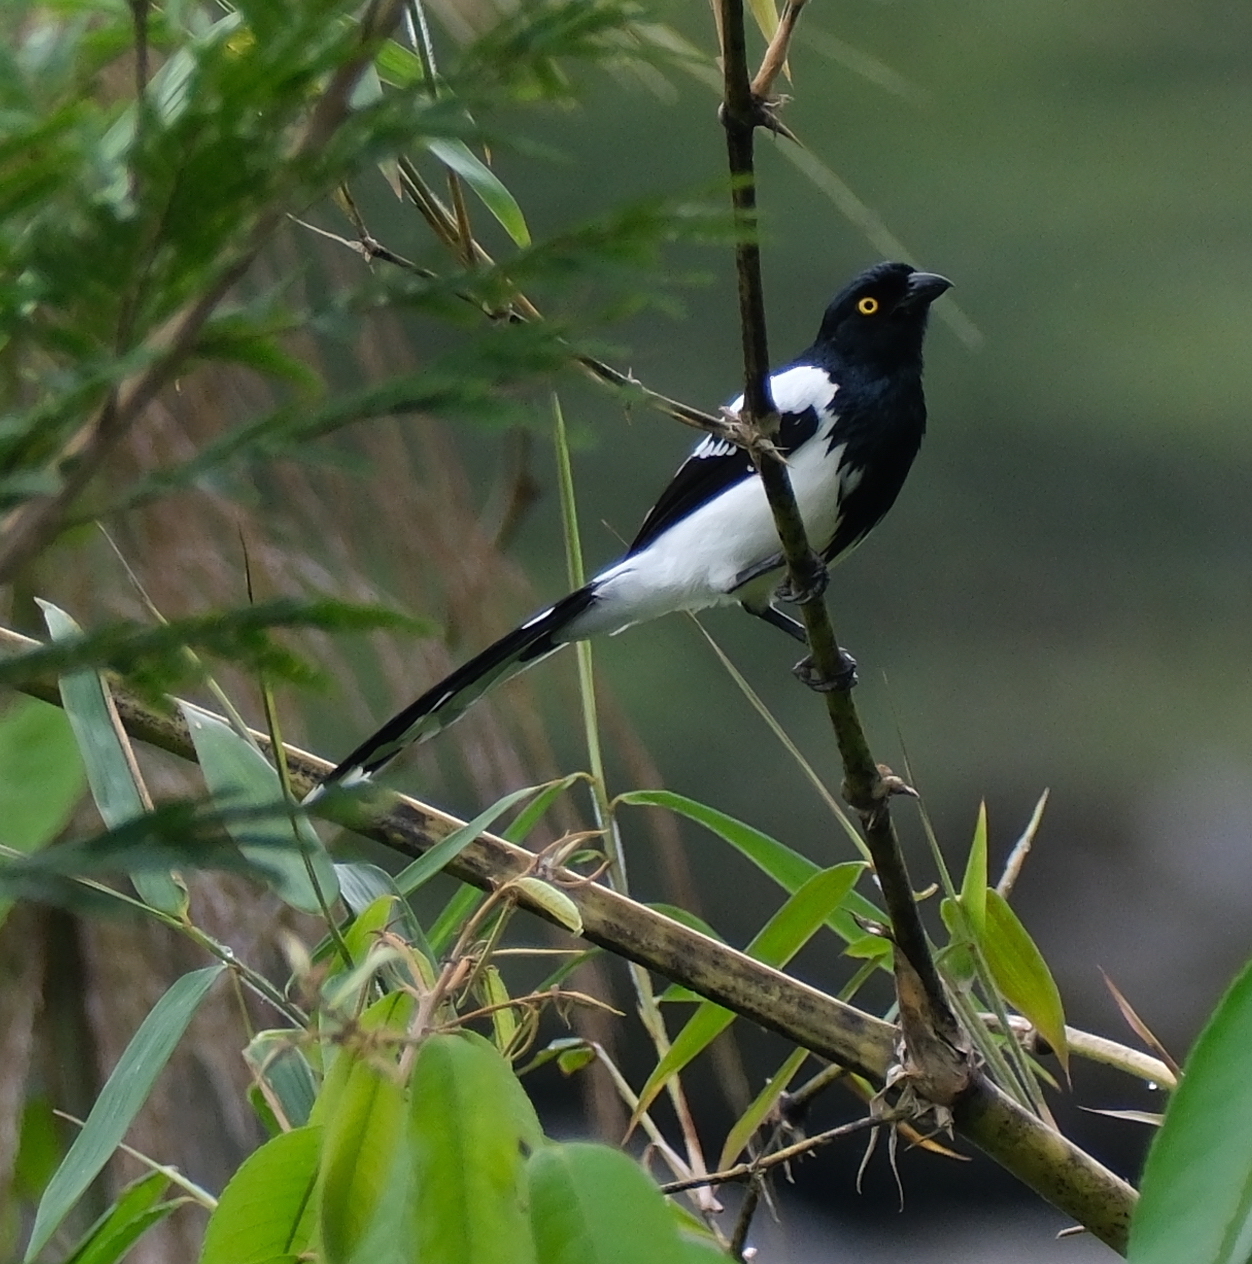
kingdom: Animalia
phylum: Chordata
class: Aves
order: Passeriformes
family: Thraupidae
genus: Cissopis
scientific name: Cissopis leverianus
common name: Magpie tanager
